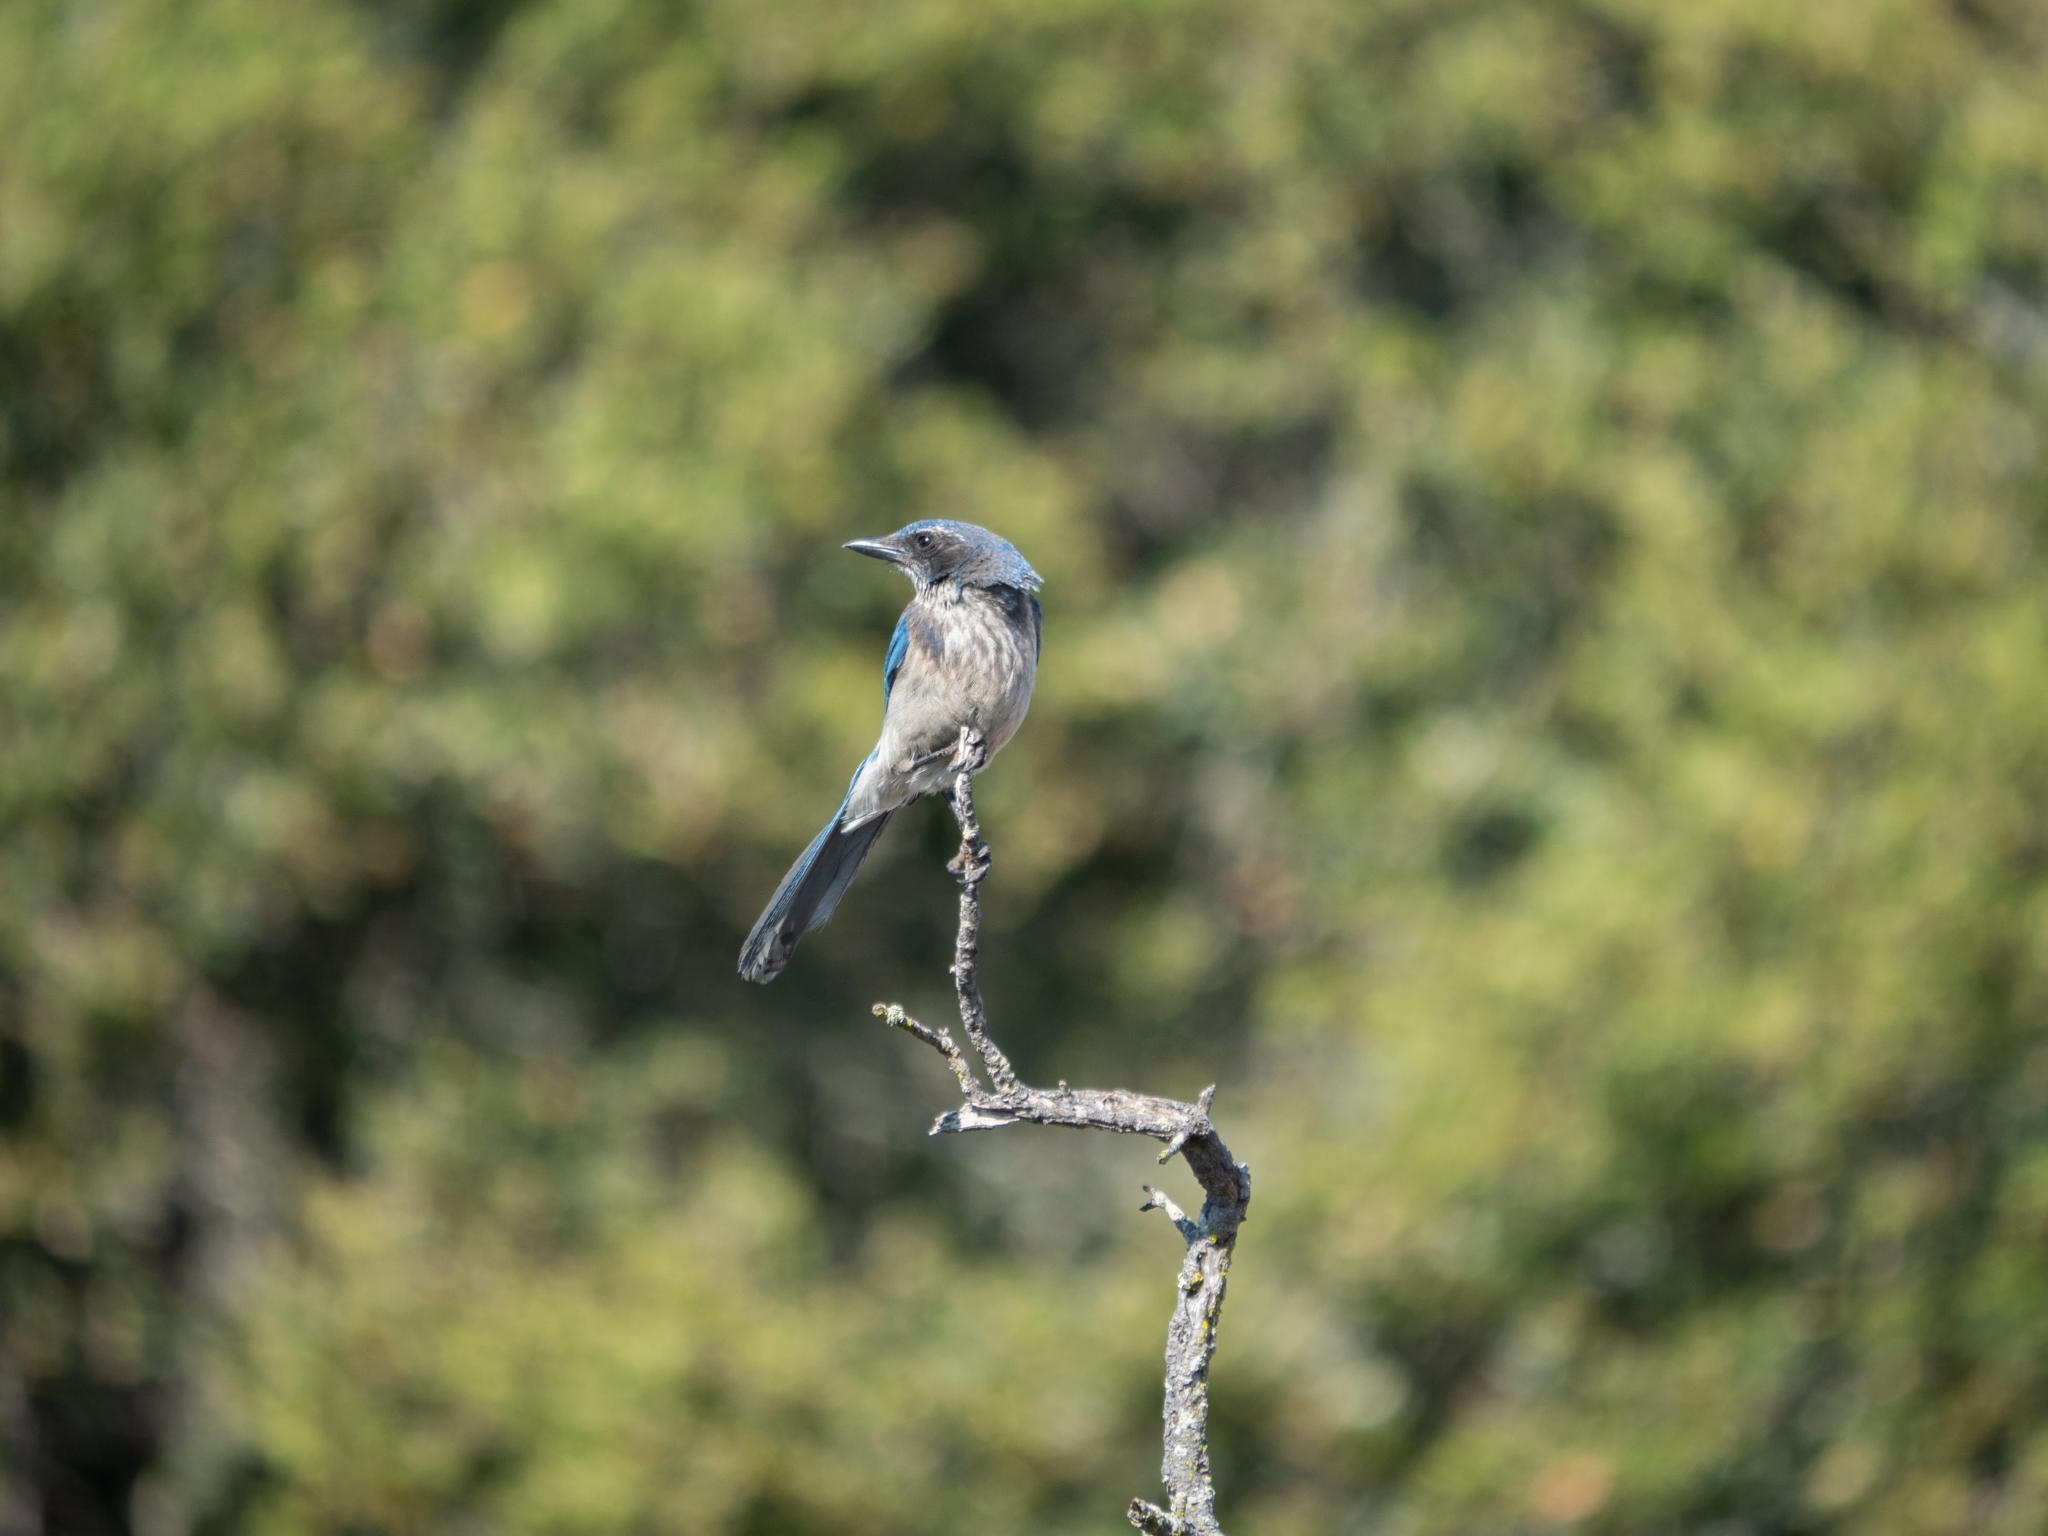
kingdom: Animalia
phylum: Chordata
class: Aves
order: Passeriformes
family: Corvidae
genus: Aphelocoma
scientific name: Aphelocoma californica
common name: California scrub-jay
